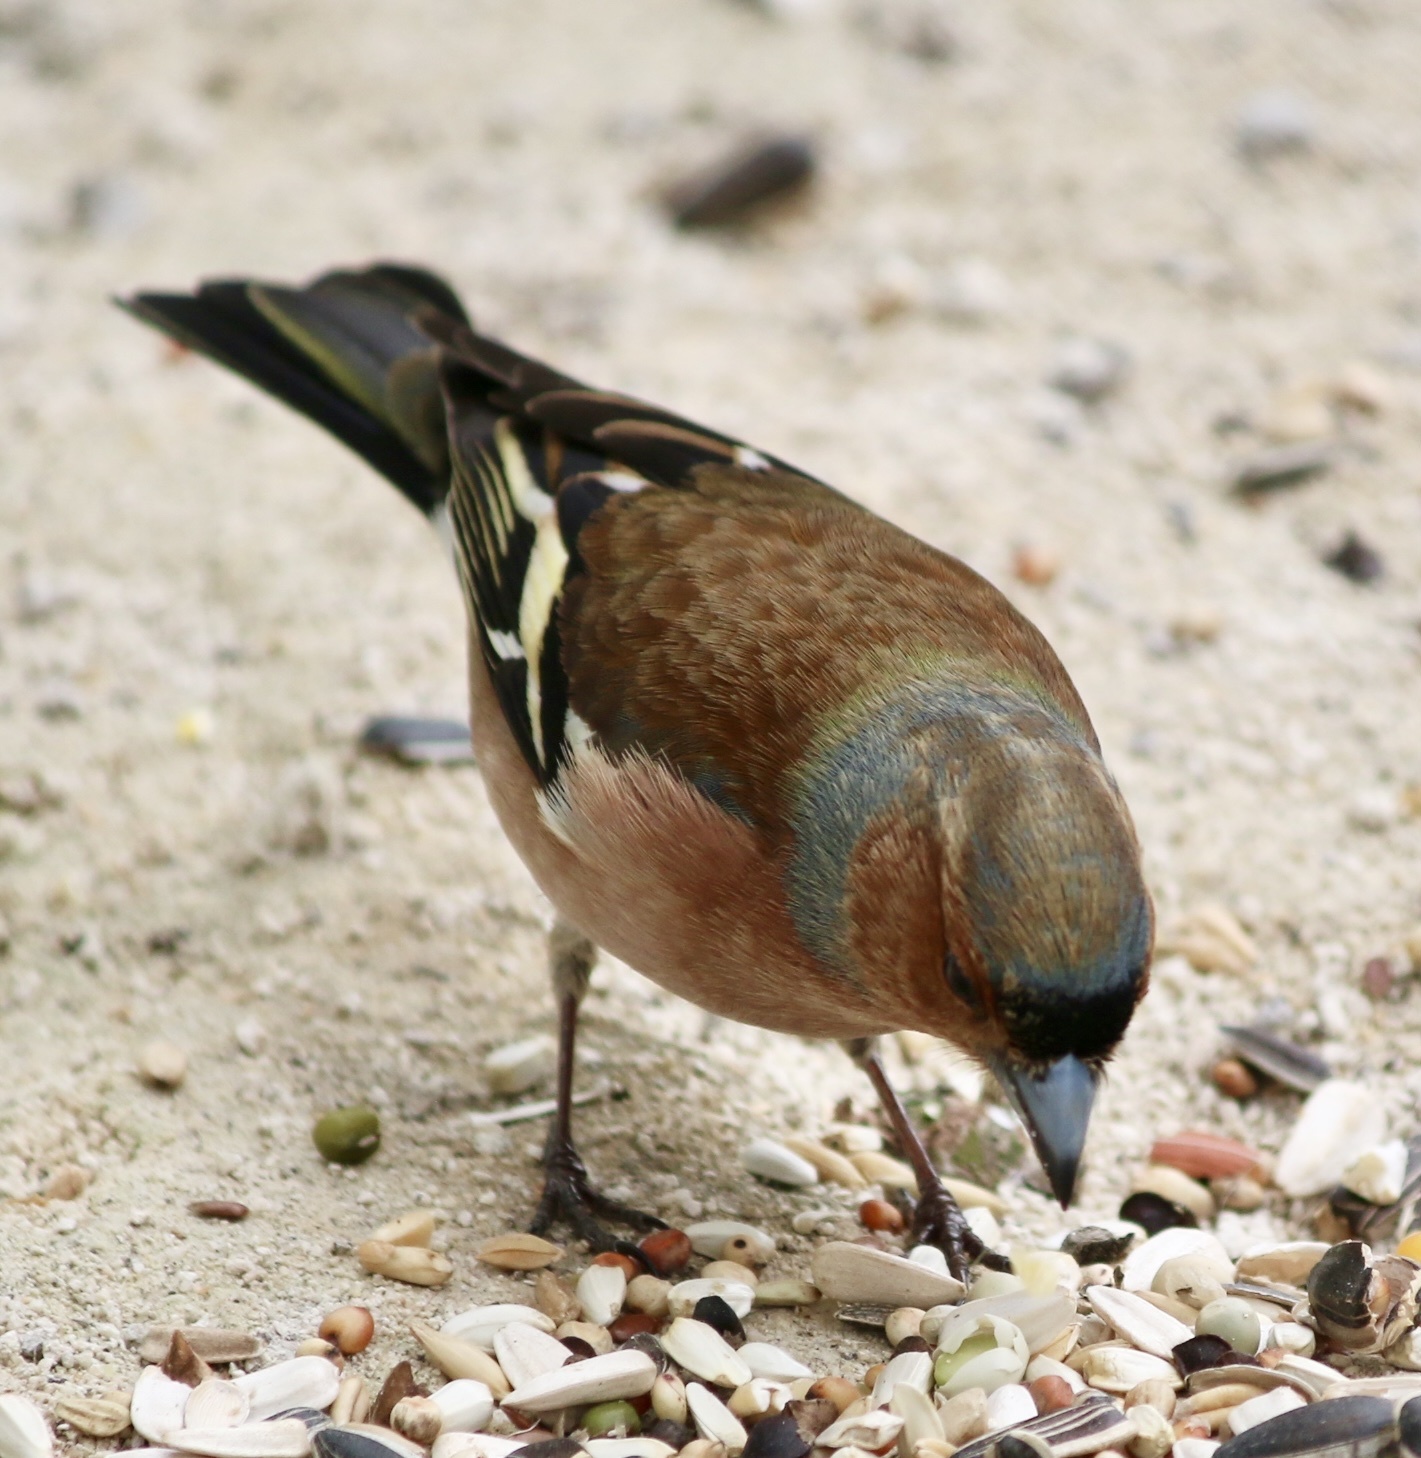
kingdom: Animalia
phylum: Chordata
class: Aves
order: Passeriformes
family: Fringillidae
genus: Fringilla
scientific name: Fringilla coelebs
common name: Common chaffinch
